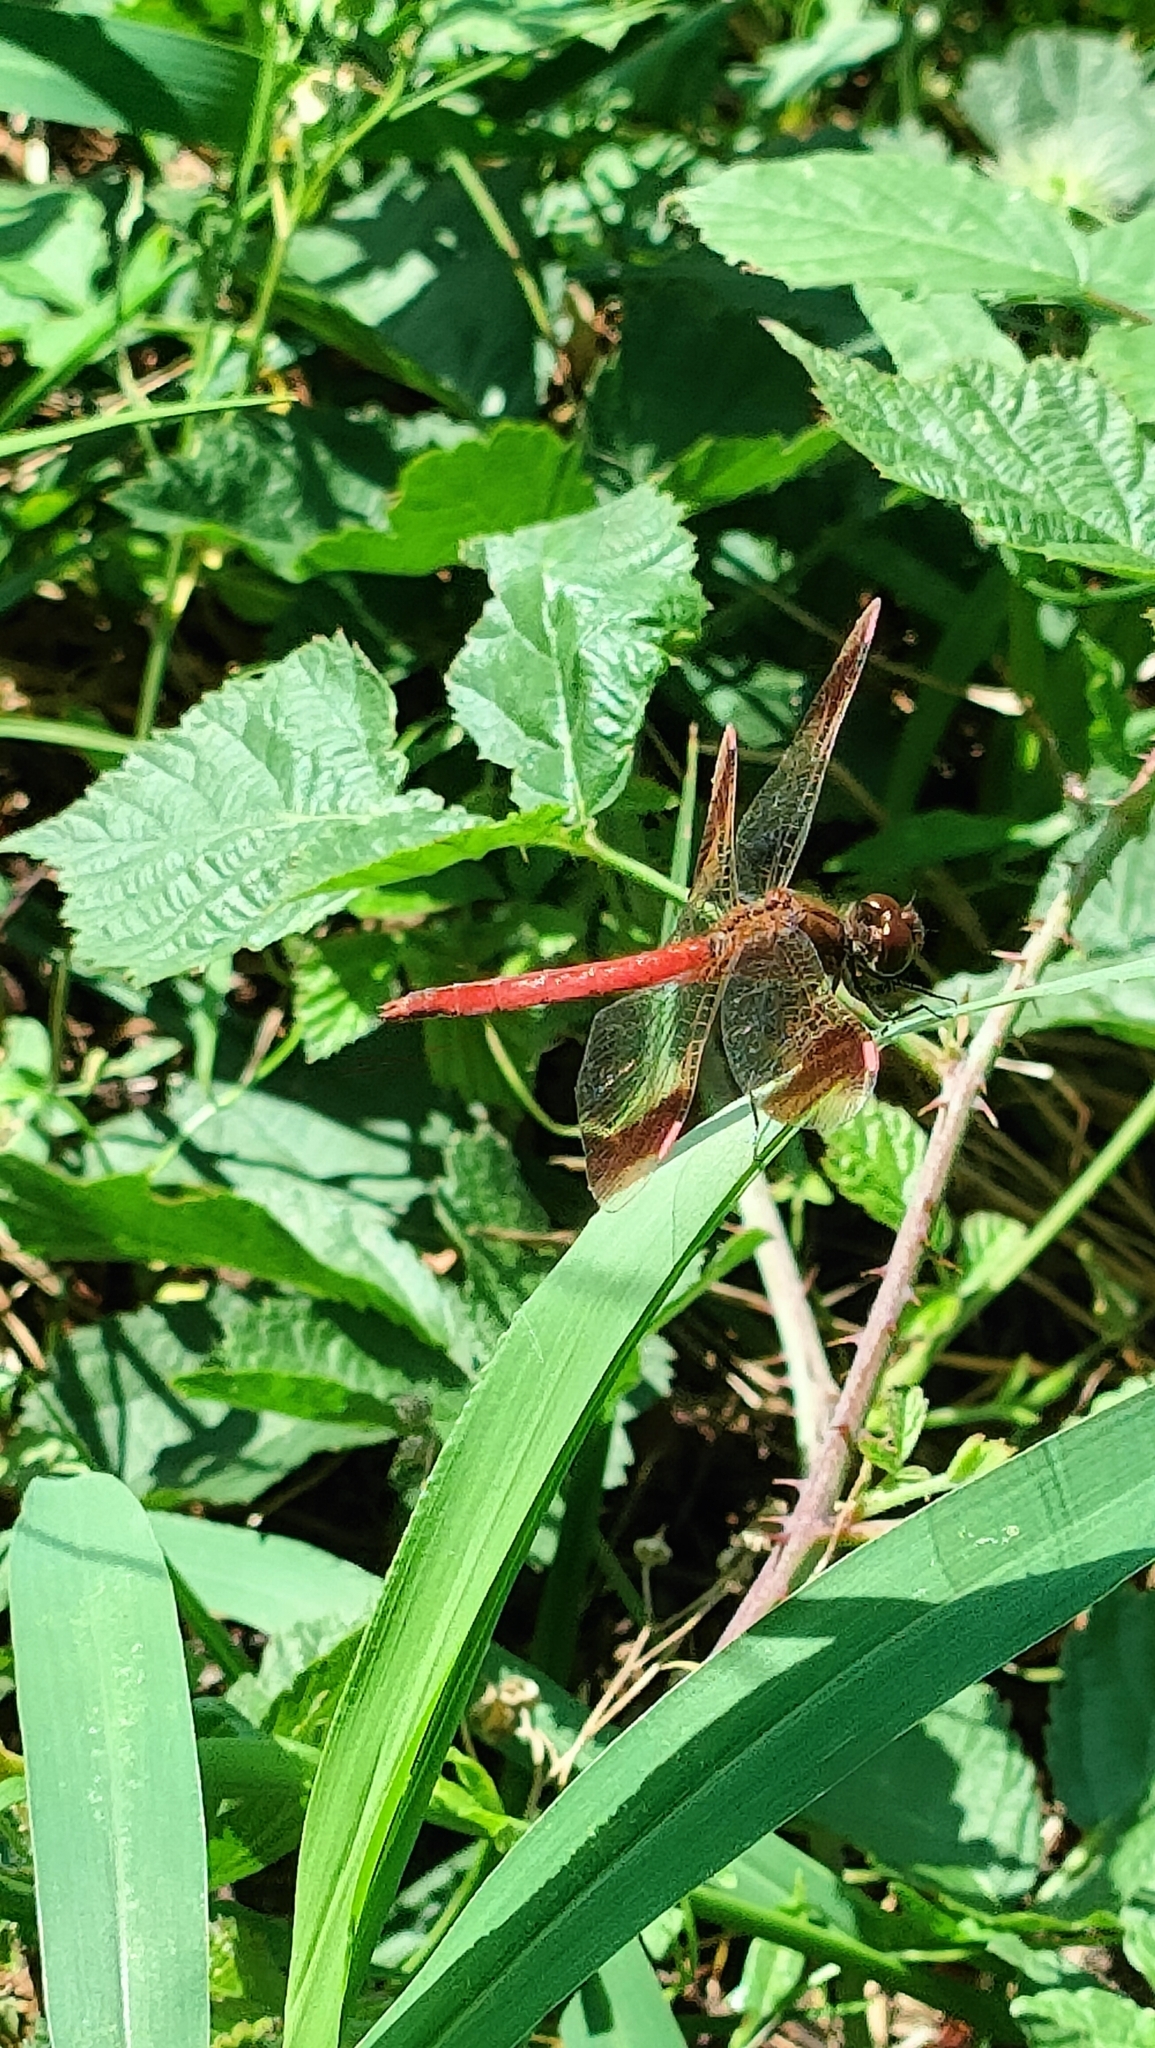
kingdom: Animalia
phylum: Arthropoda
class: Insecta
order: Odonata
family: Libellulidae
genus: Sympetrum
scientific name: Sympetrum pedemontanum
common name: Banded darter
